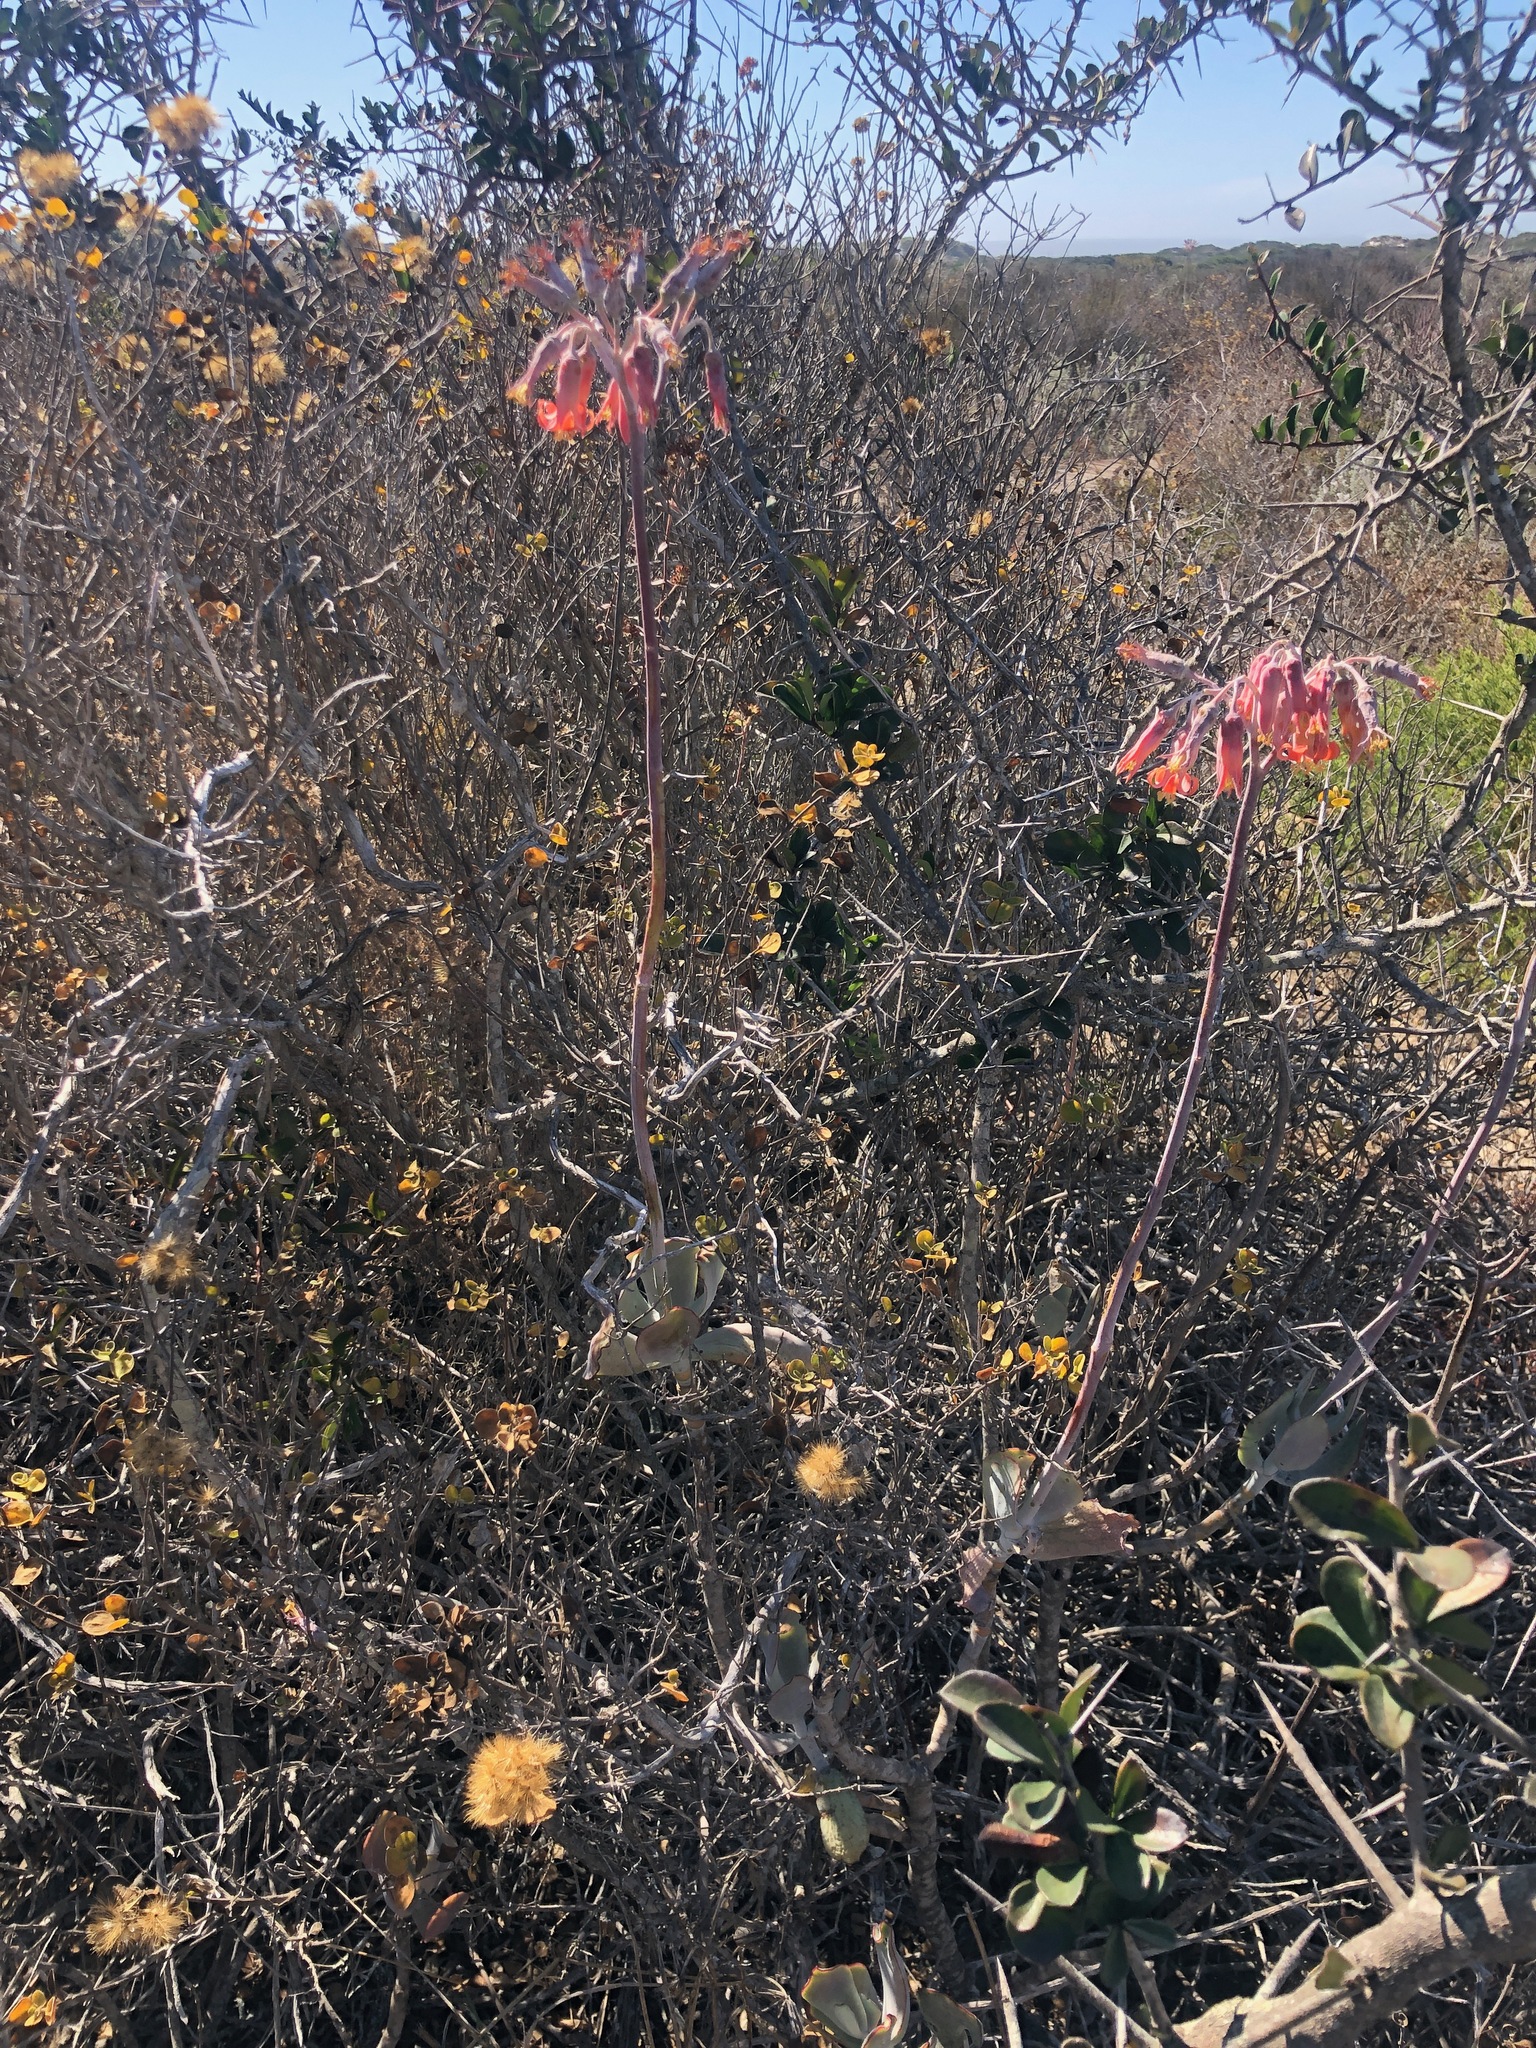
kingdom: Plantae
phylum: Tracheophyta
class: Magnoliopsida
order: Saxifragales
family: Crassulaceae
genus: Cotyledon
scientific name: Cotyledon orbiculata
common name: Pig's ear
